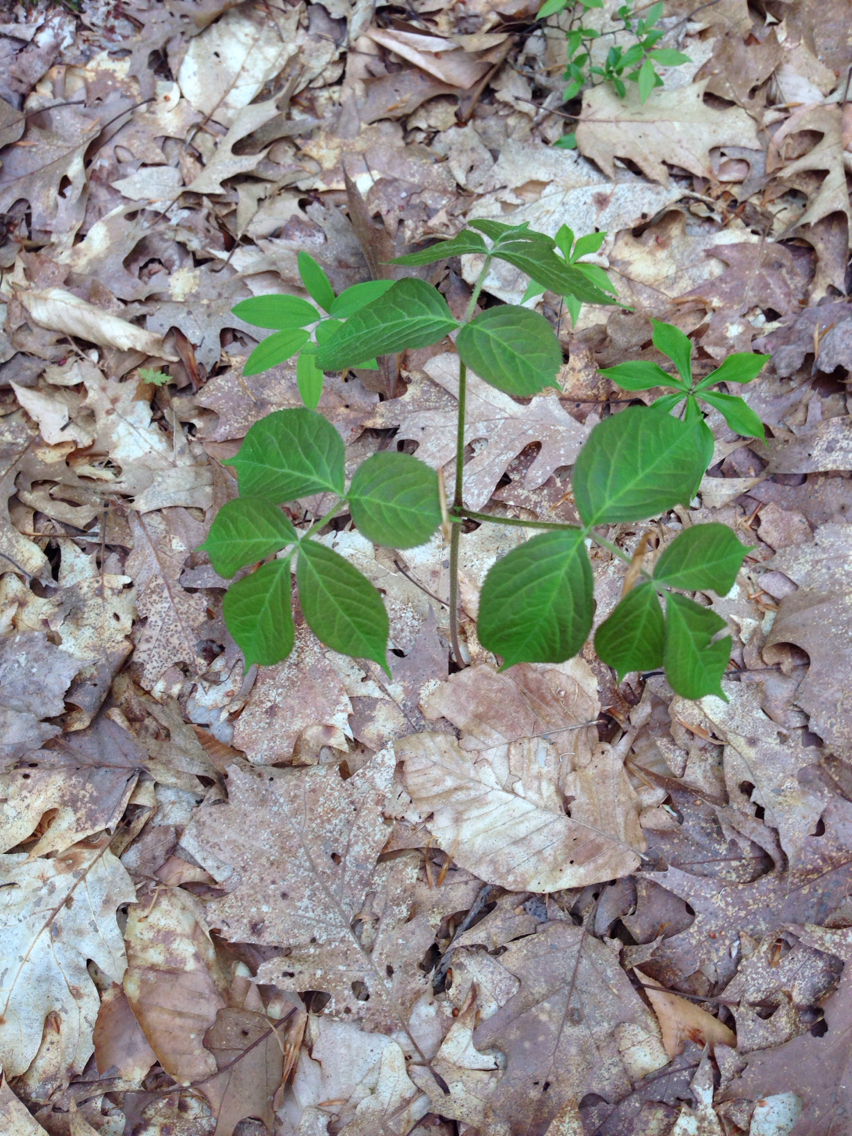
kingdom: Plantae
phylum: Tracheophyta
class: Magnoliopsida
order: Apiales
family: Araliaceae
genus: Aralia
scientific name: Aralia nudicaulis
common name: Wild sarsaparilla
